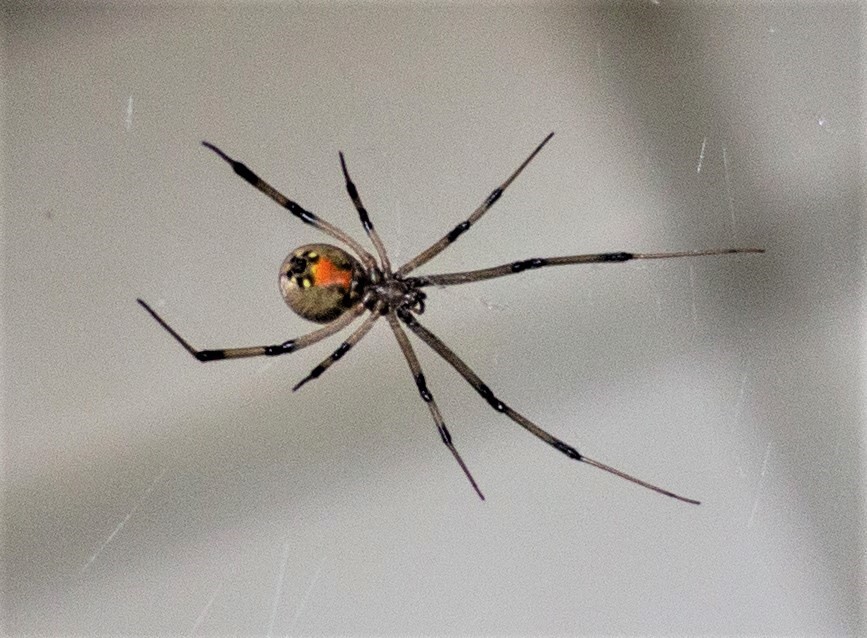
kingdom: Animalia
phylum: Arthropoda
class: Arachnida
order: Araneae
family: Theridiidae
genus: Latrodectus
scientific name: Latrodectus geometricus
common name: Brown widow spider
